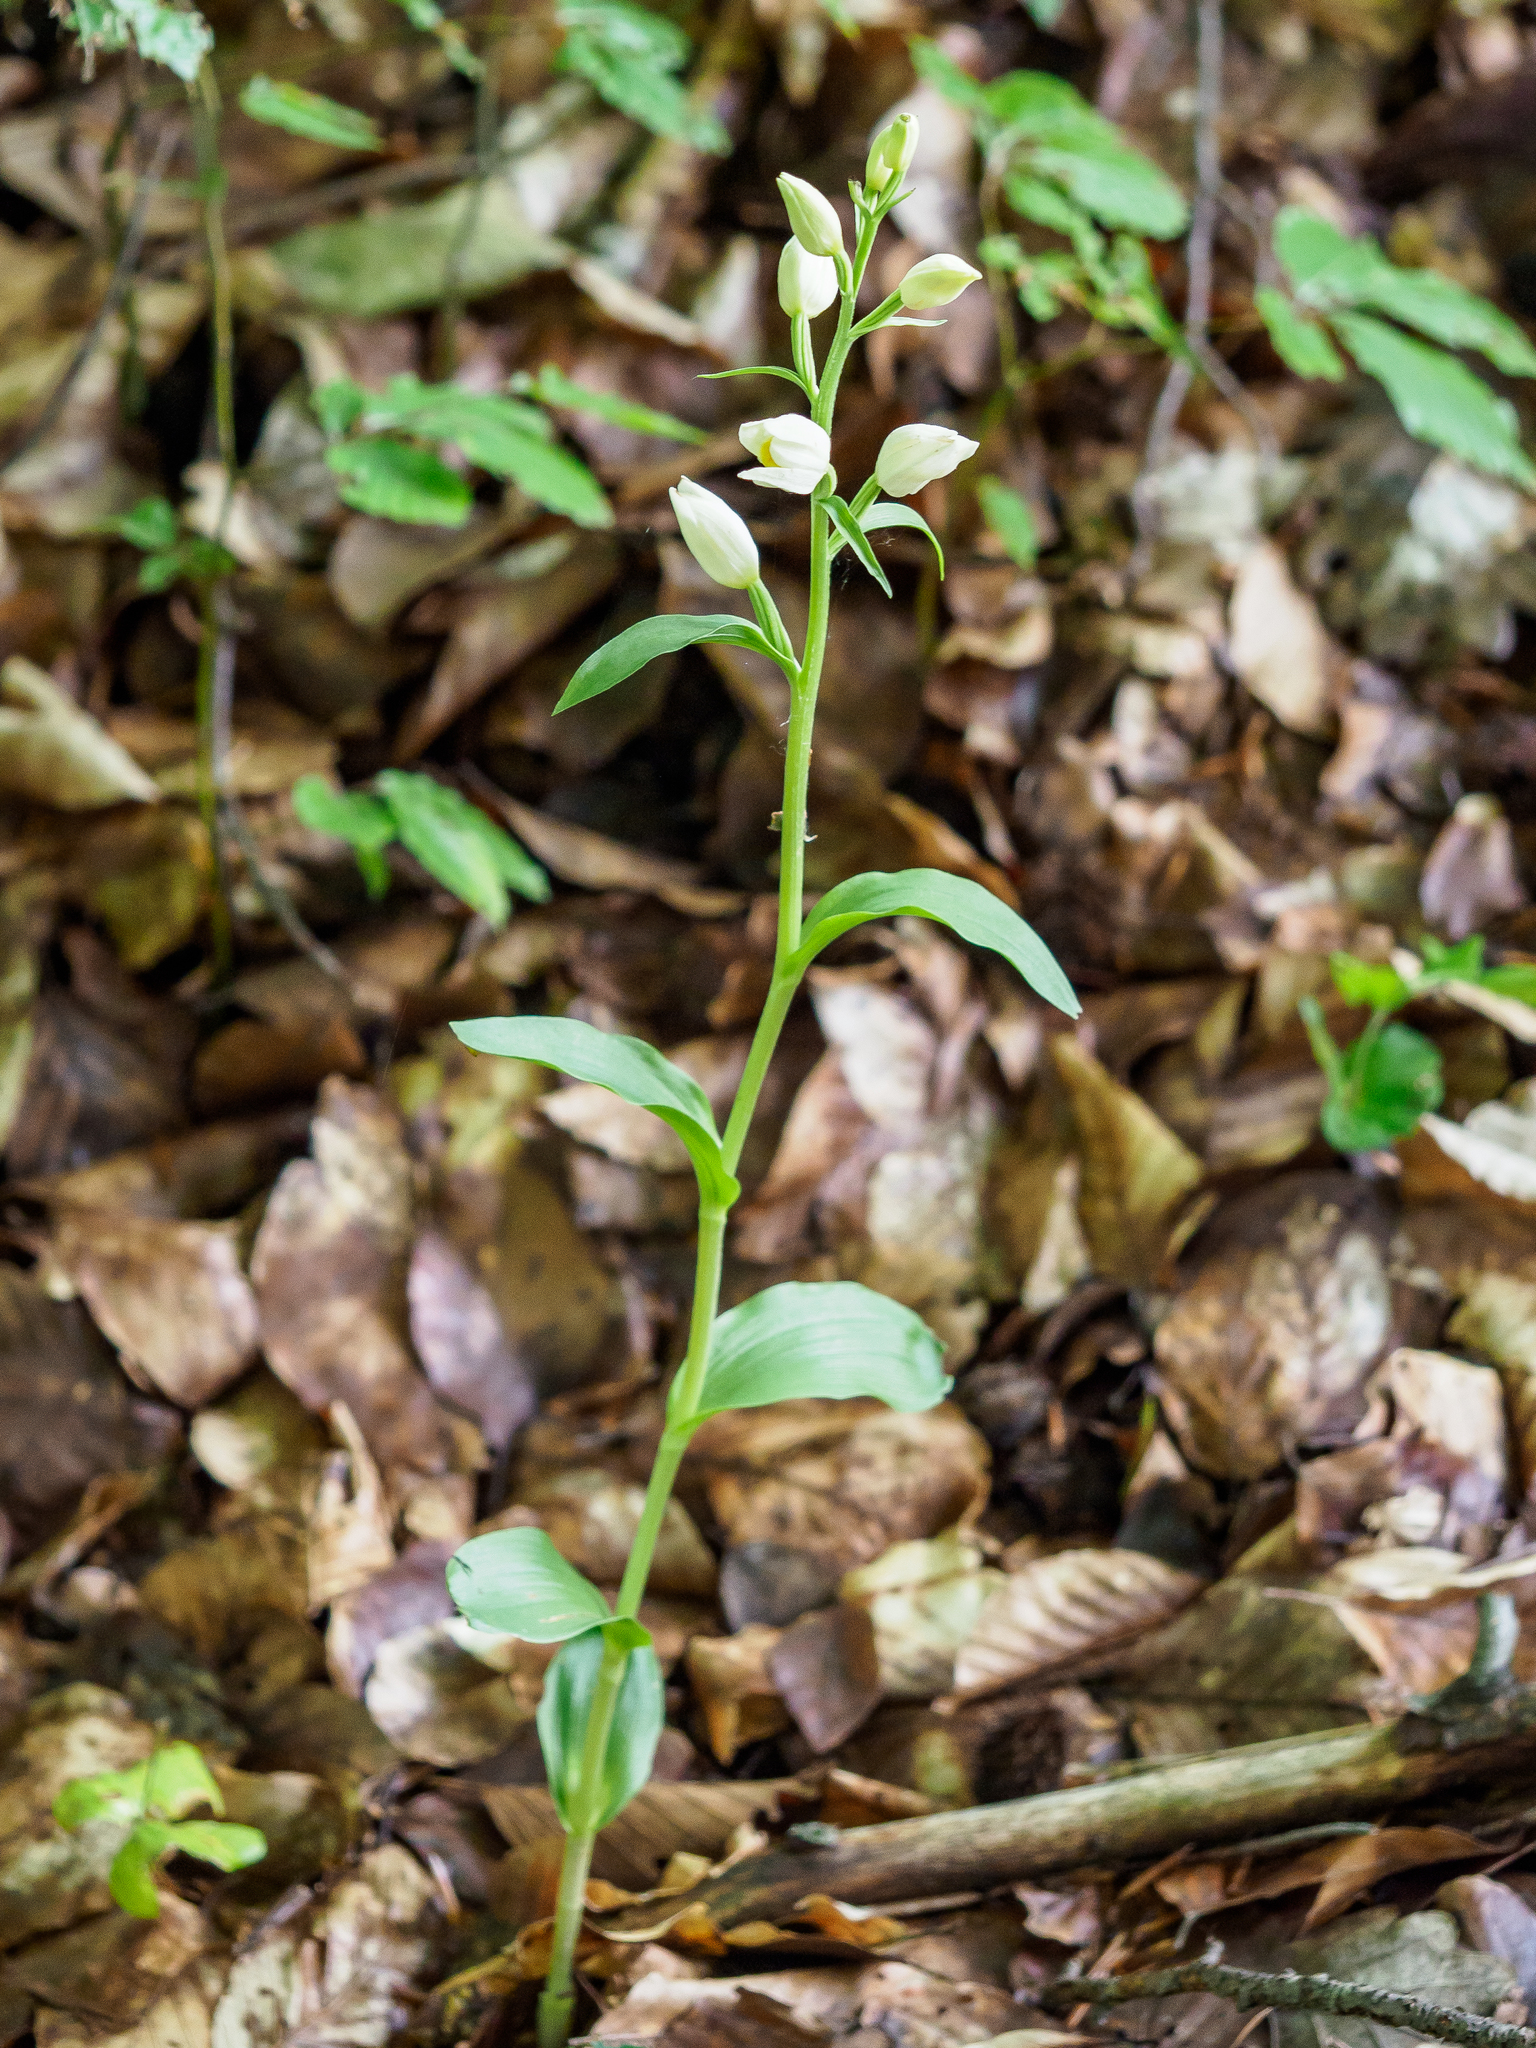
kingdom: Plantae
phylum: Tracheophyta
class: Liliopsida
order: Asparagales
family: Orchidaceae
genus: Cephalanthera
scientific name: Cephalanthera damasonium
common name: White helleborine
